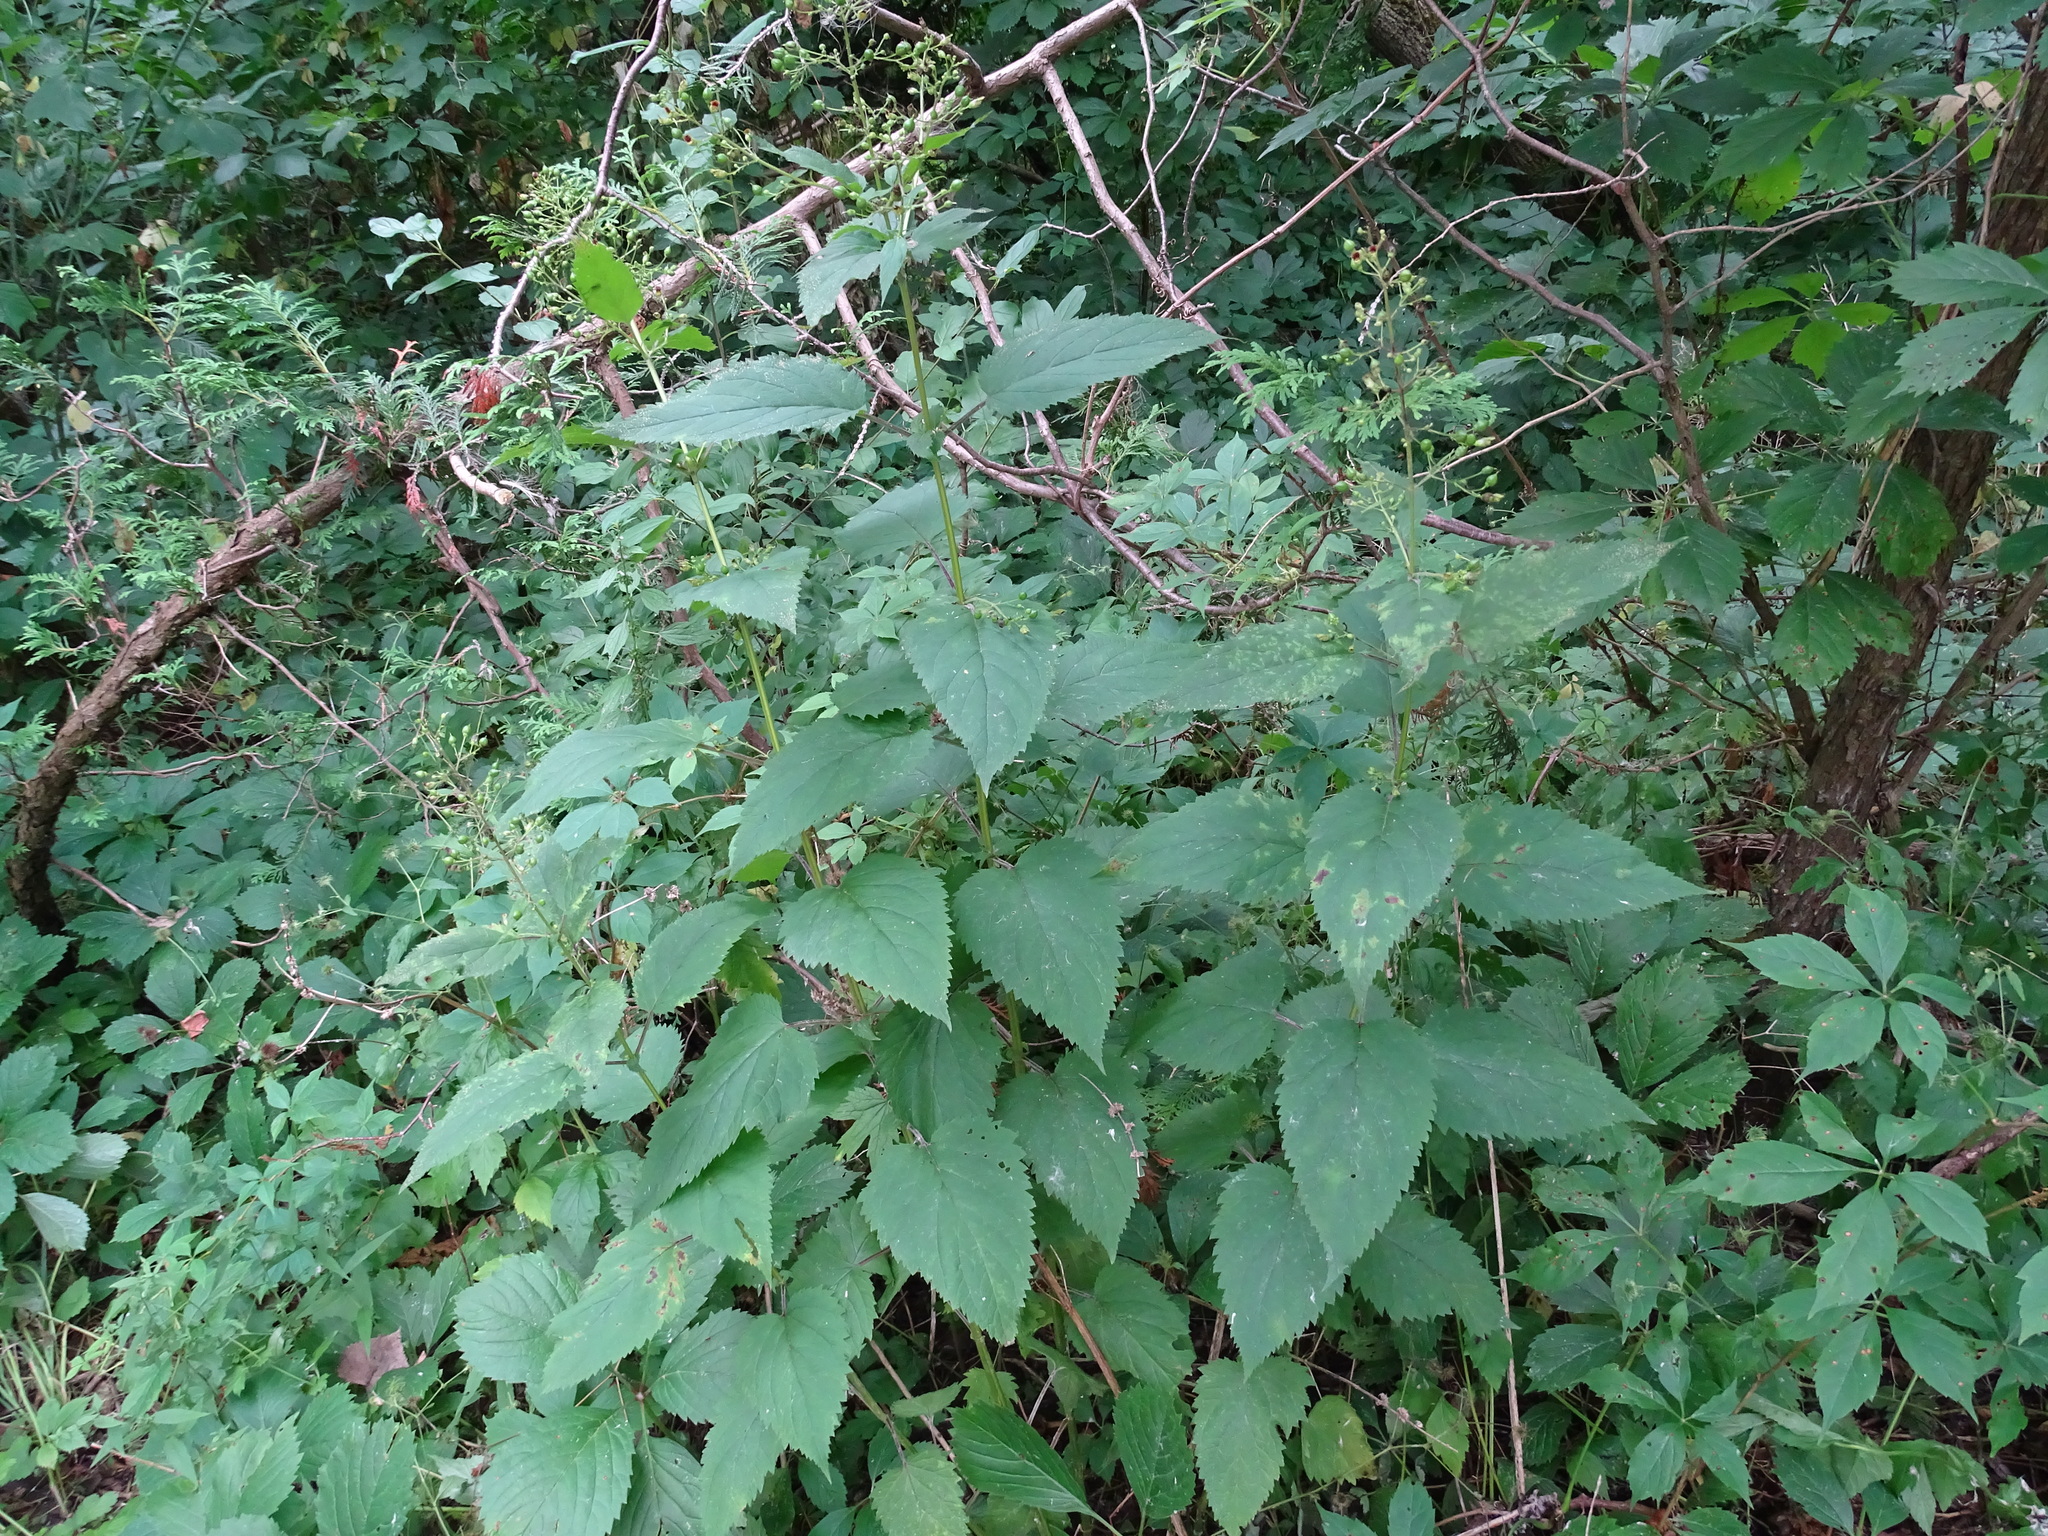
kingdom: Plantae
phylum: Tracheophyta
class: Magnoliopsida
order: Lamiales
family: Scrophulariaceae
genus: Scrophularia
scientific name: Scrophularia marilandica
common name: Eastern figwort
